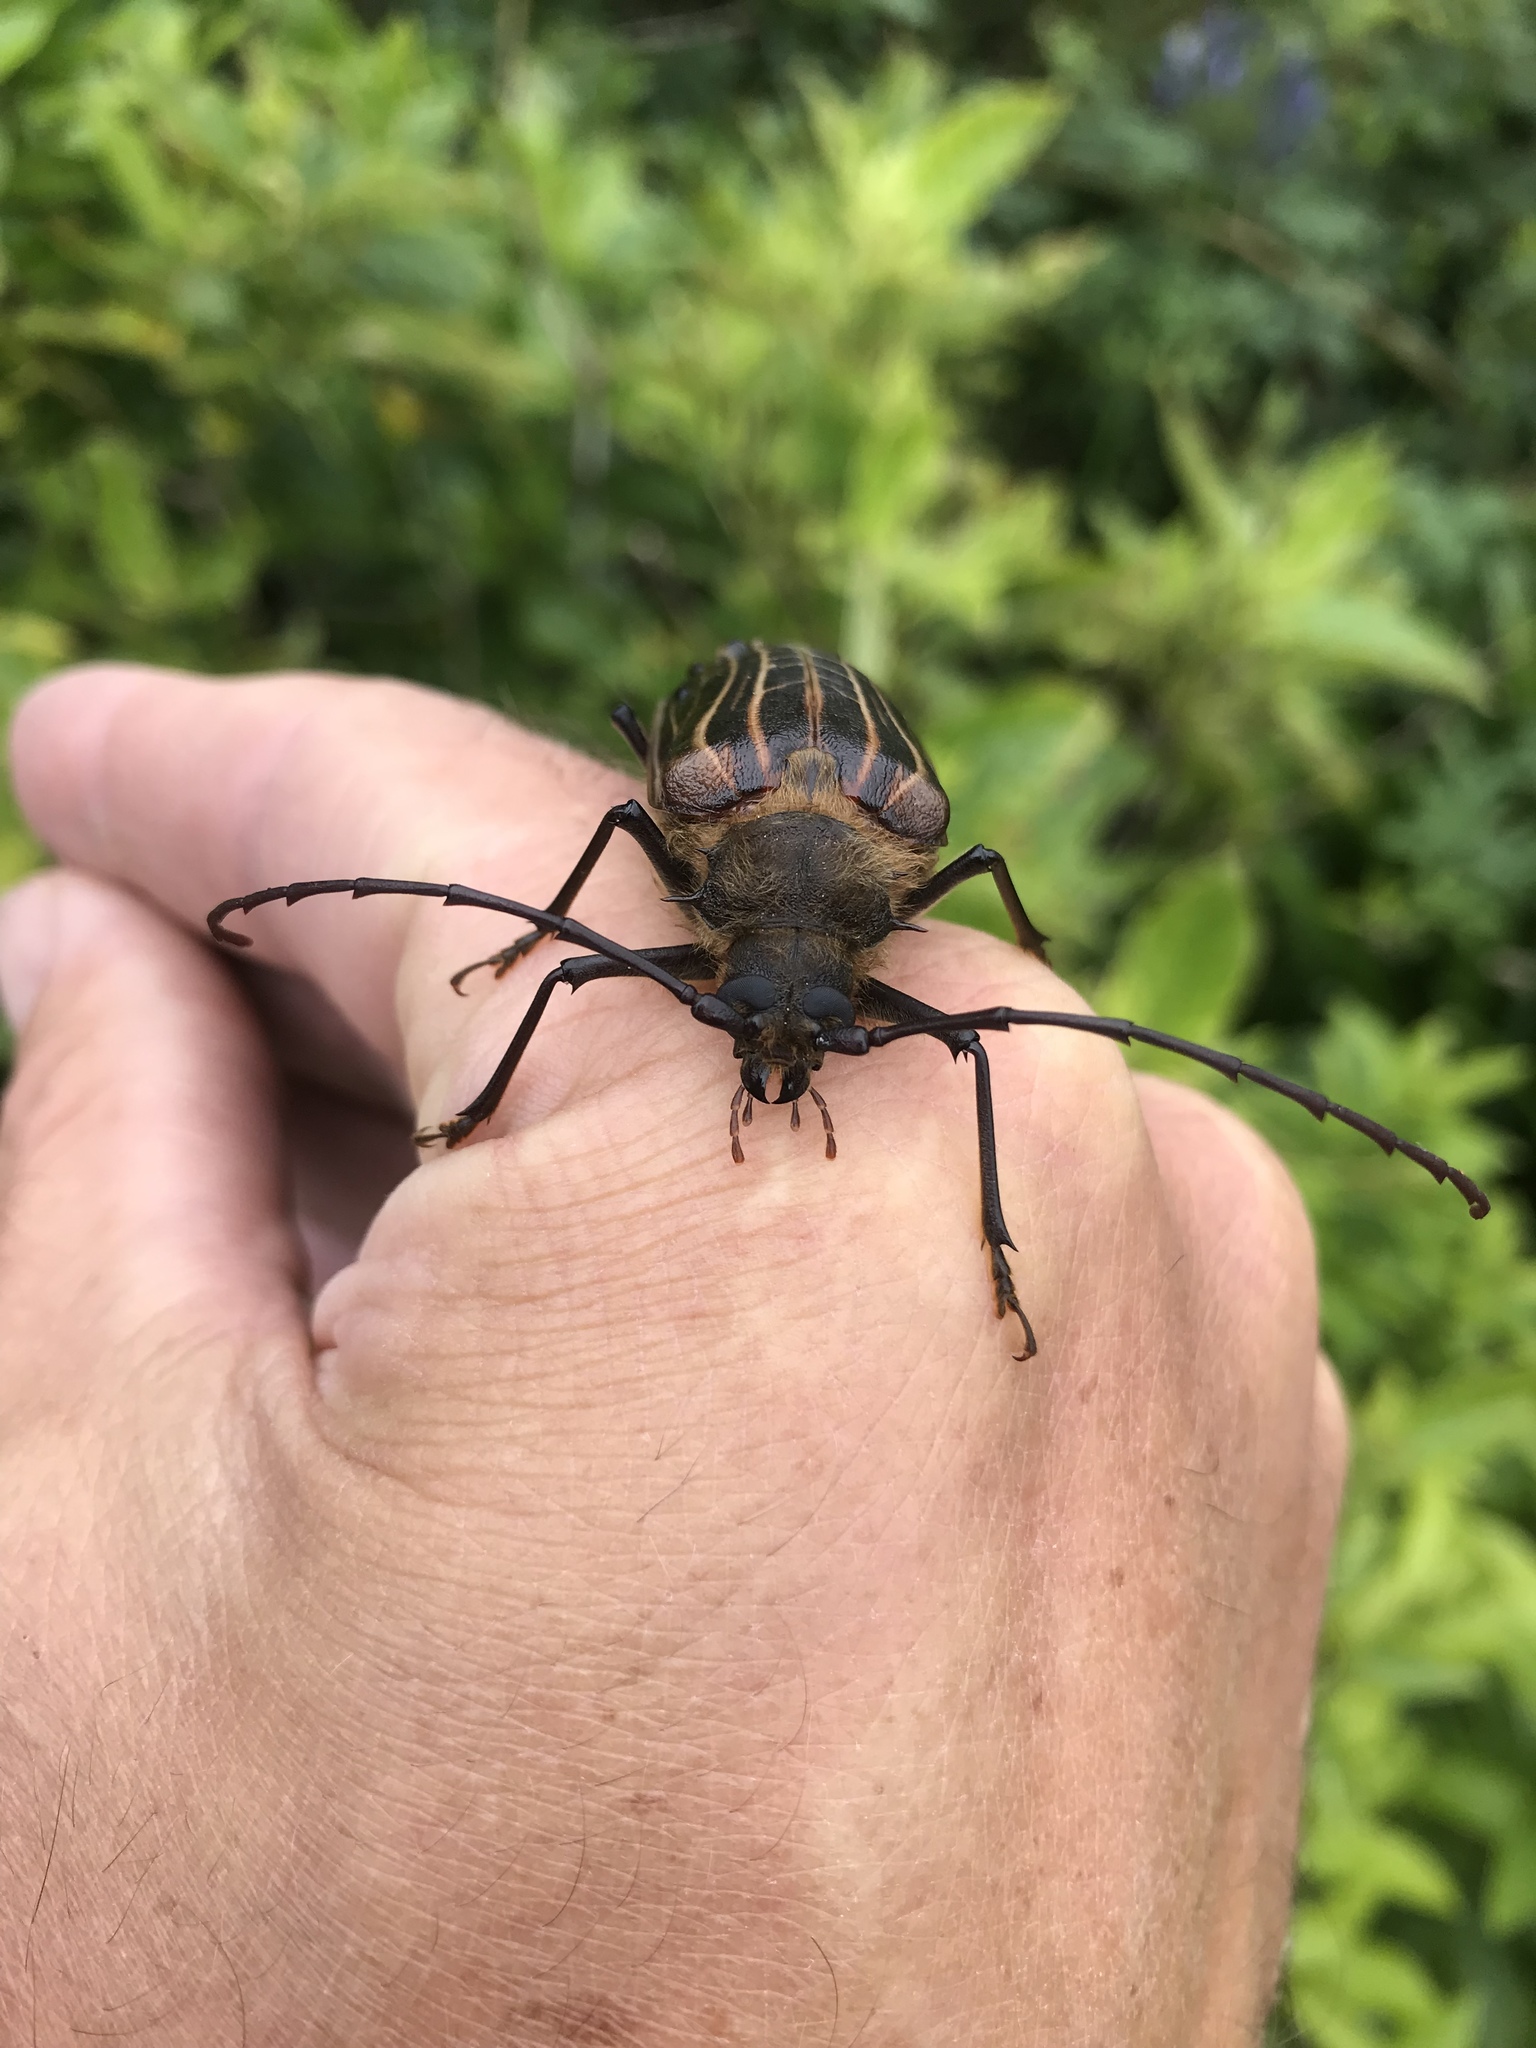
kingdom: Animalia
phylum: Arthropoda
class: Insecta
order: Coleoptera
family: Cerambycidae
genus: Prionoplus
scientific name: Prionoplus reticularis
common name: Huhu beetle
